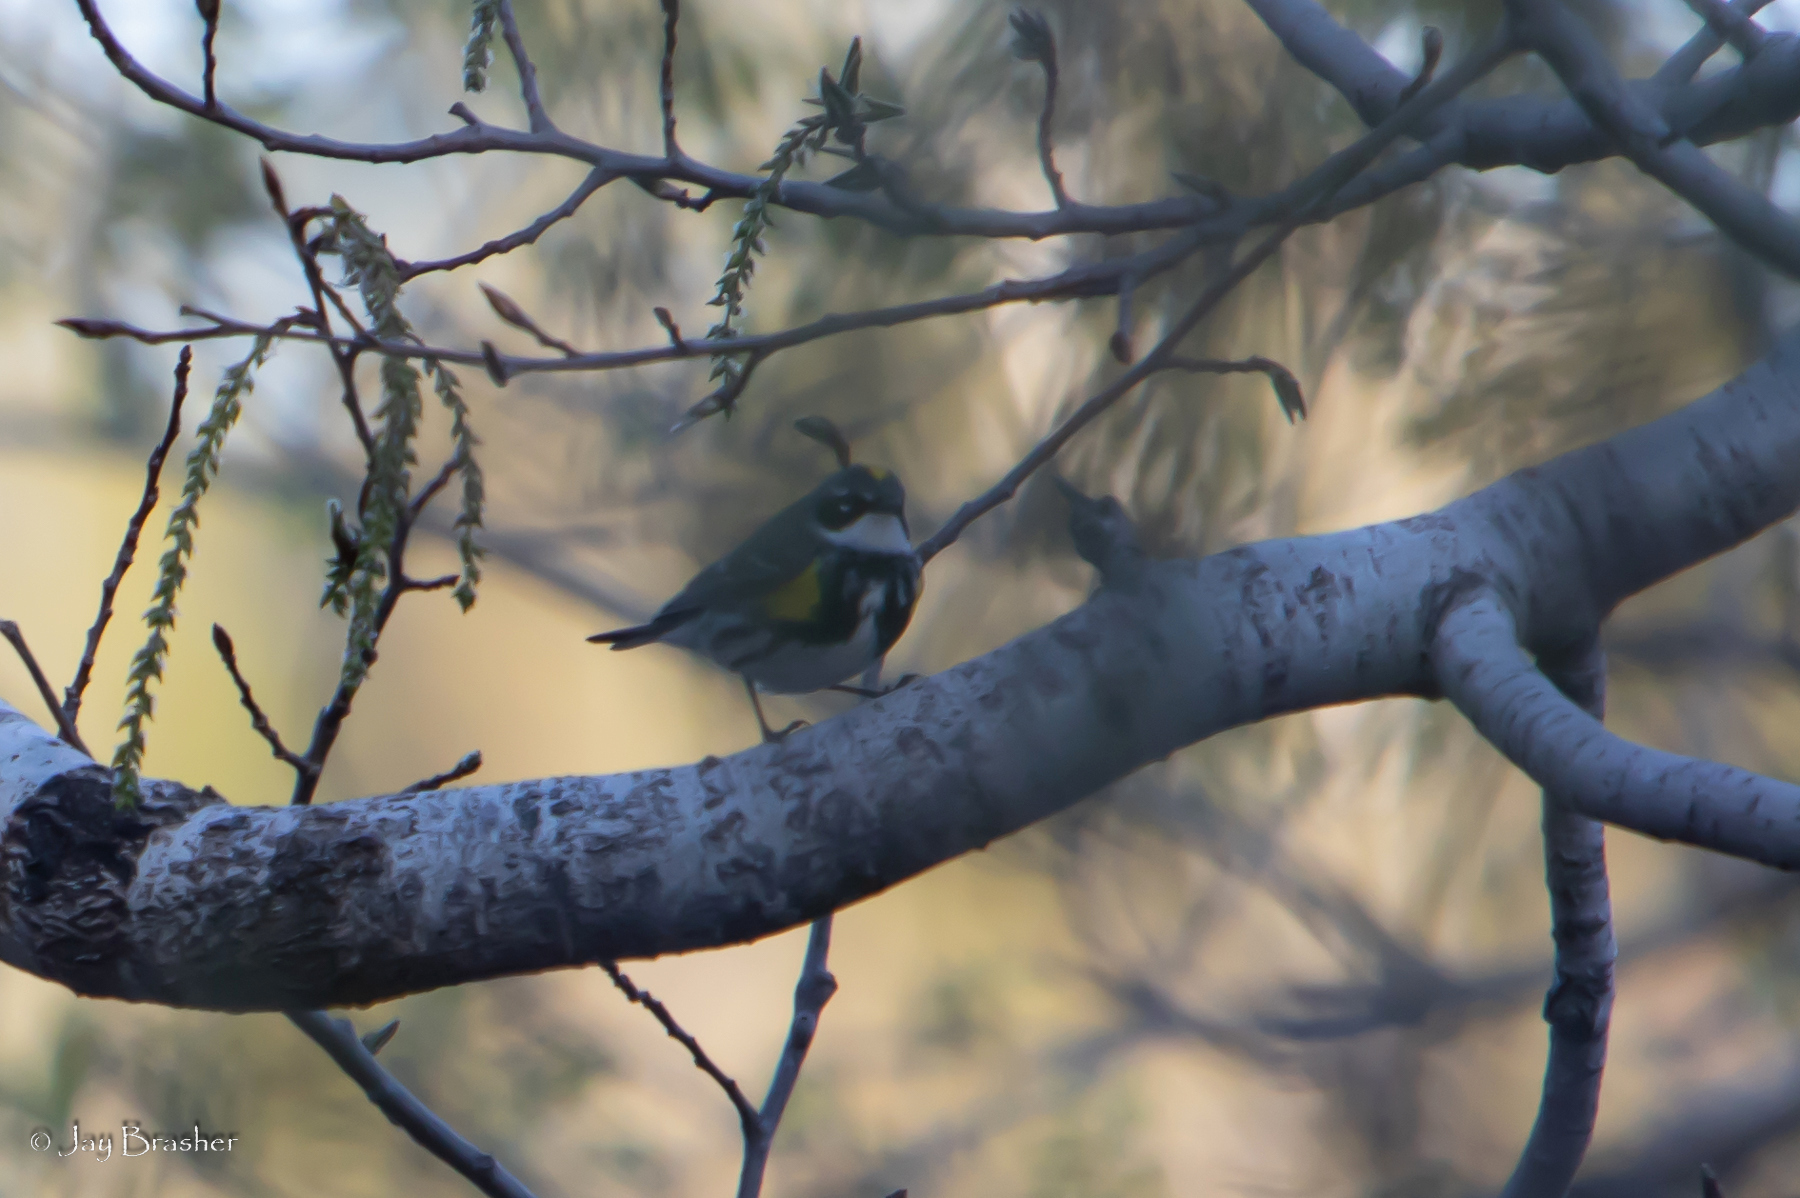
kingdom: Animalia
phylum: Chordata
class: Aves
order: Passeriformes
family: Parulidae
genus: Setophaga
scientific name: Setophaga coronata
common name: Myrtle warbler
